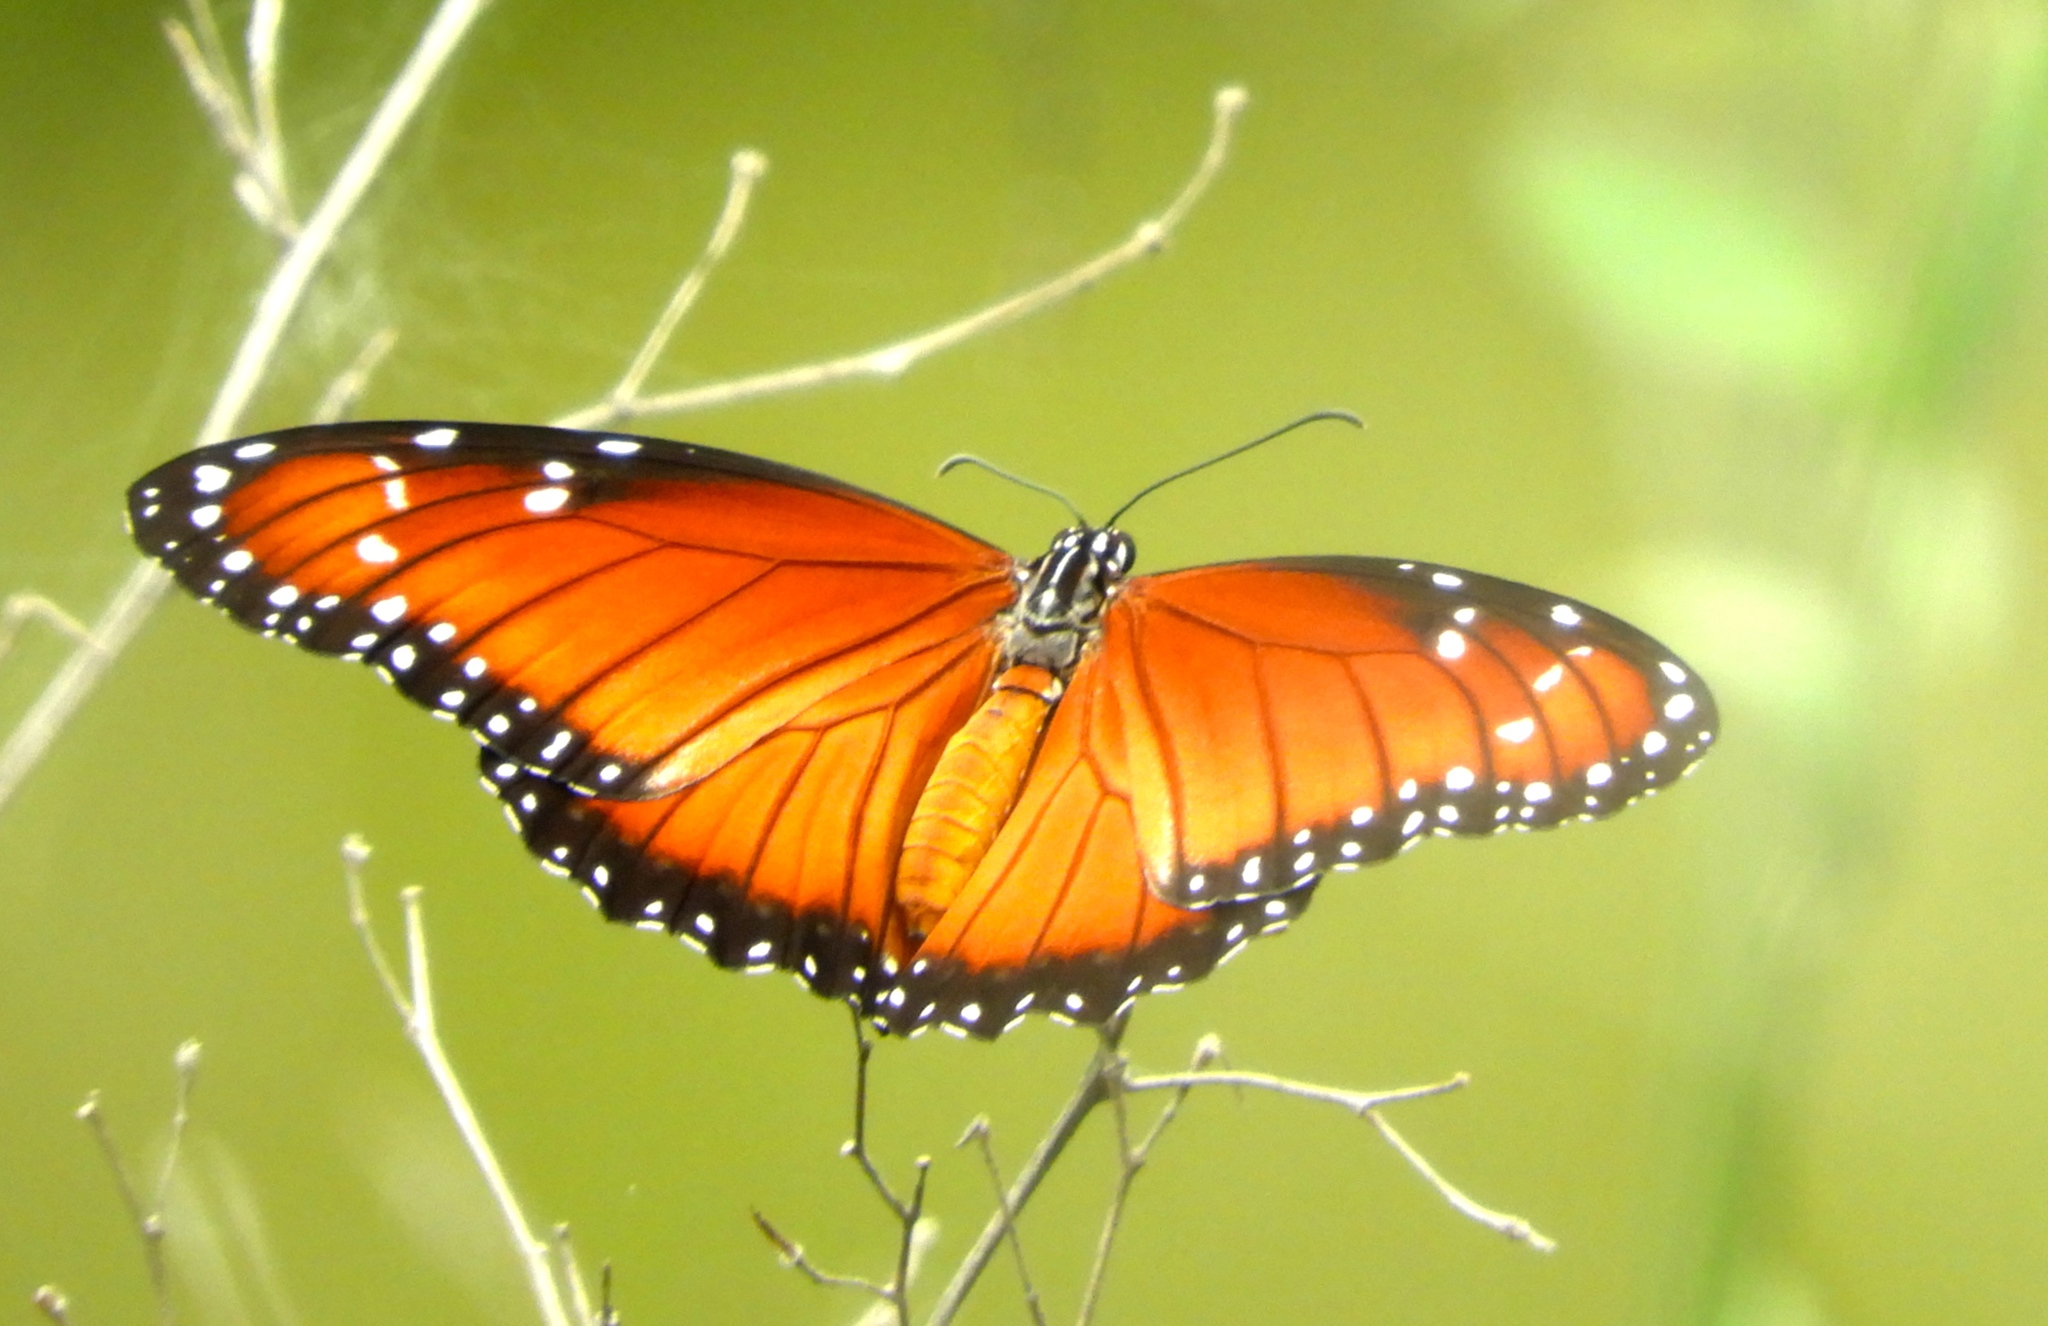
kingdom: Animalia
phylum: Arthropoda
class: Insecta
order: Lepidoptera
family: Nymphalidae
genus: Danaus
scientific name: Danaus eresimus
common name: Soldier
